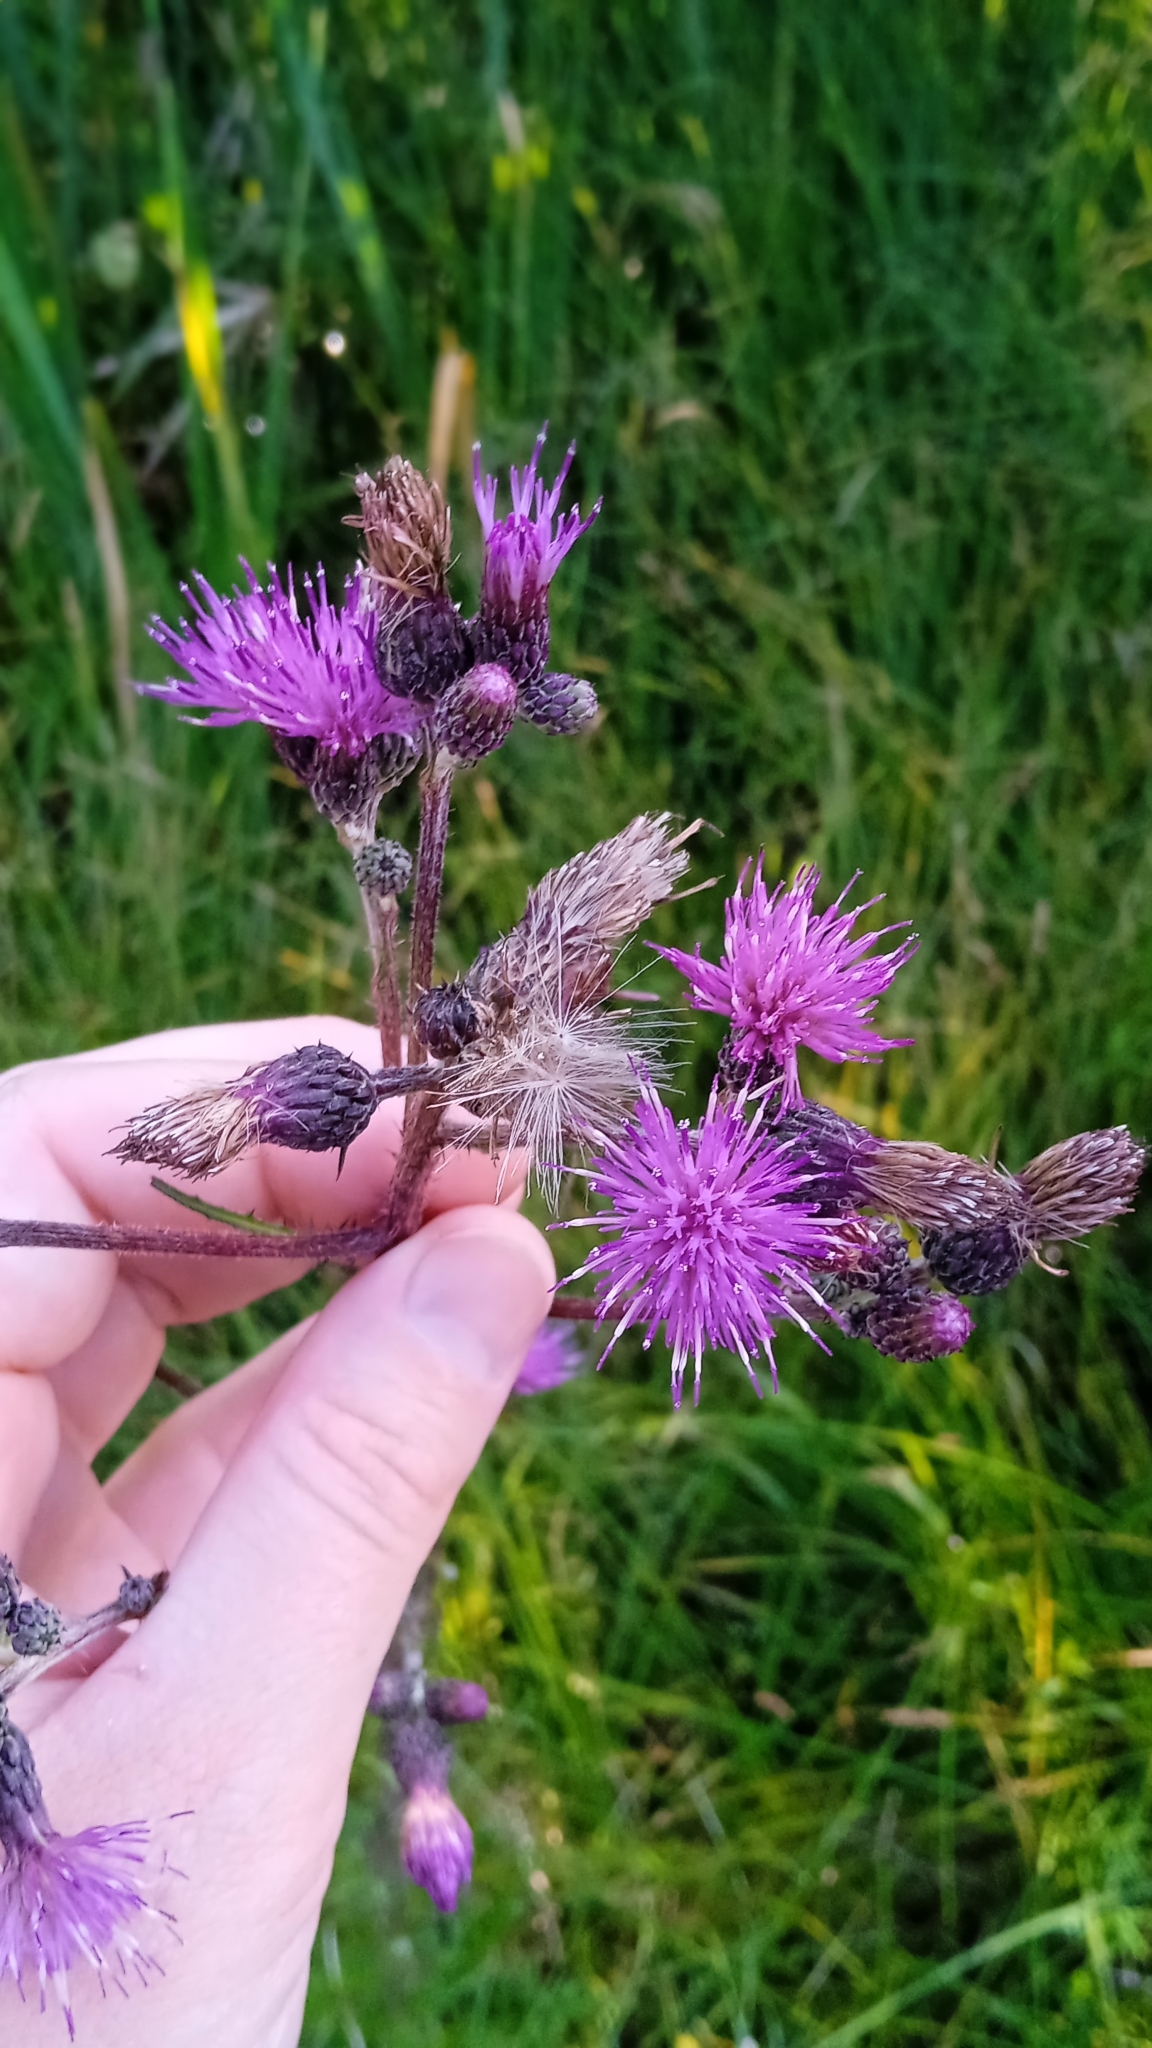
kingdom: Plantae
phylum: Tracheophyta
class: Magnoliopsida
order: Asterales
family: Asteraceae
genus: Cirsium
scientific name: Cirsium palustre
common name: Marsh thistle
